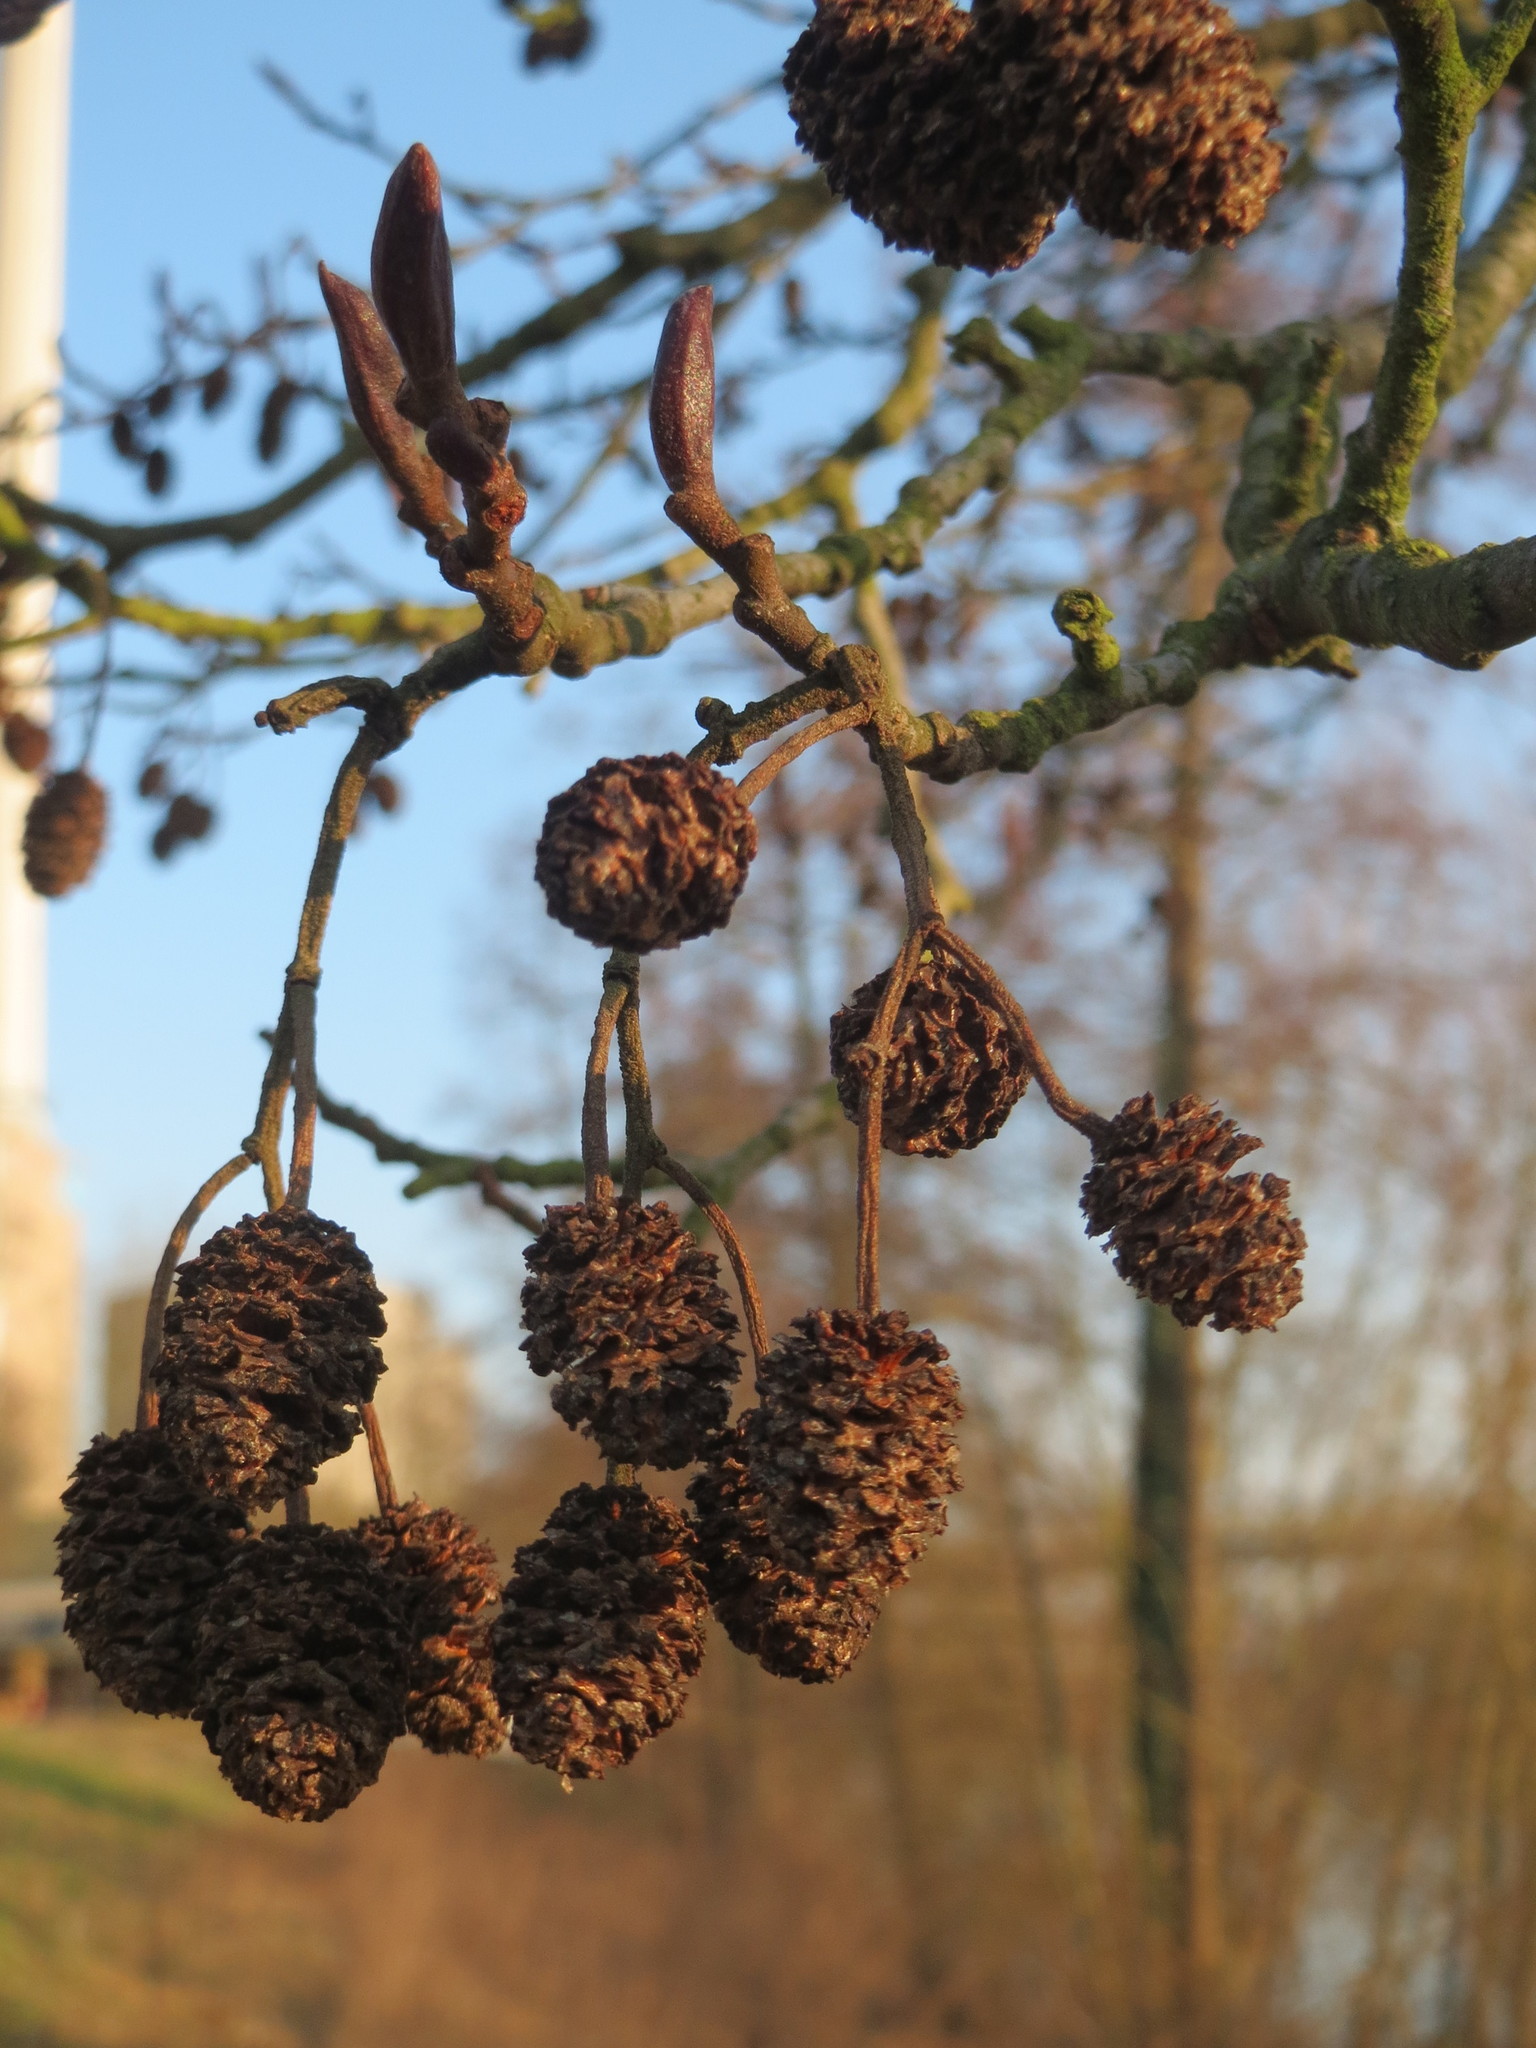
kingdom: Plantae
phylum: Tracheophyta
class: Magnoliopsida
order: Fagales
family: Betulaceae
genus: Alnus
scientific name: Alnus glutinosa
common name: Black alder
